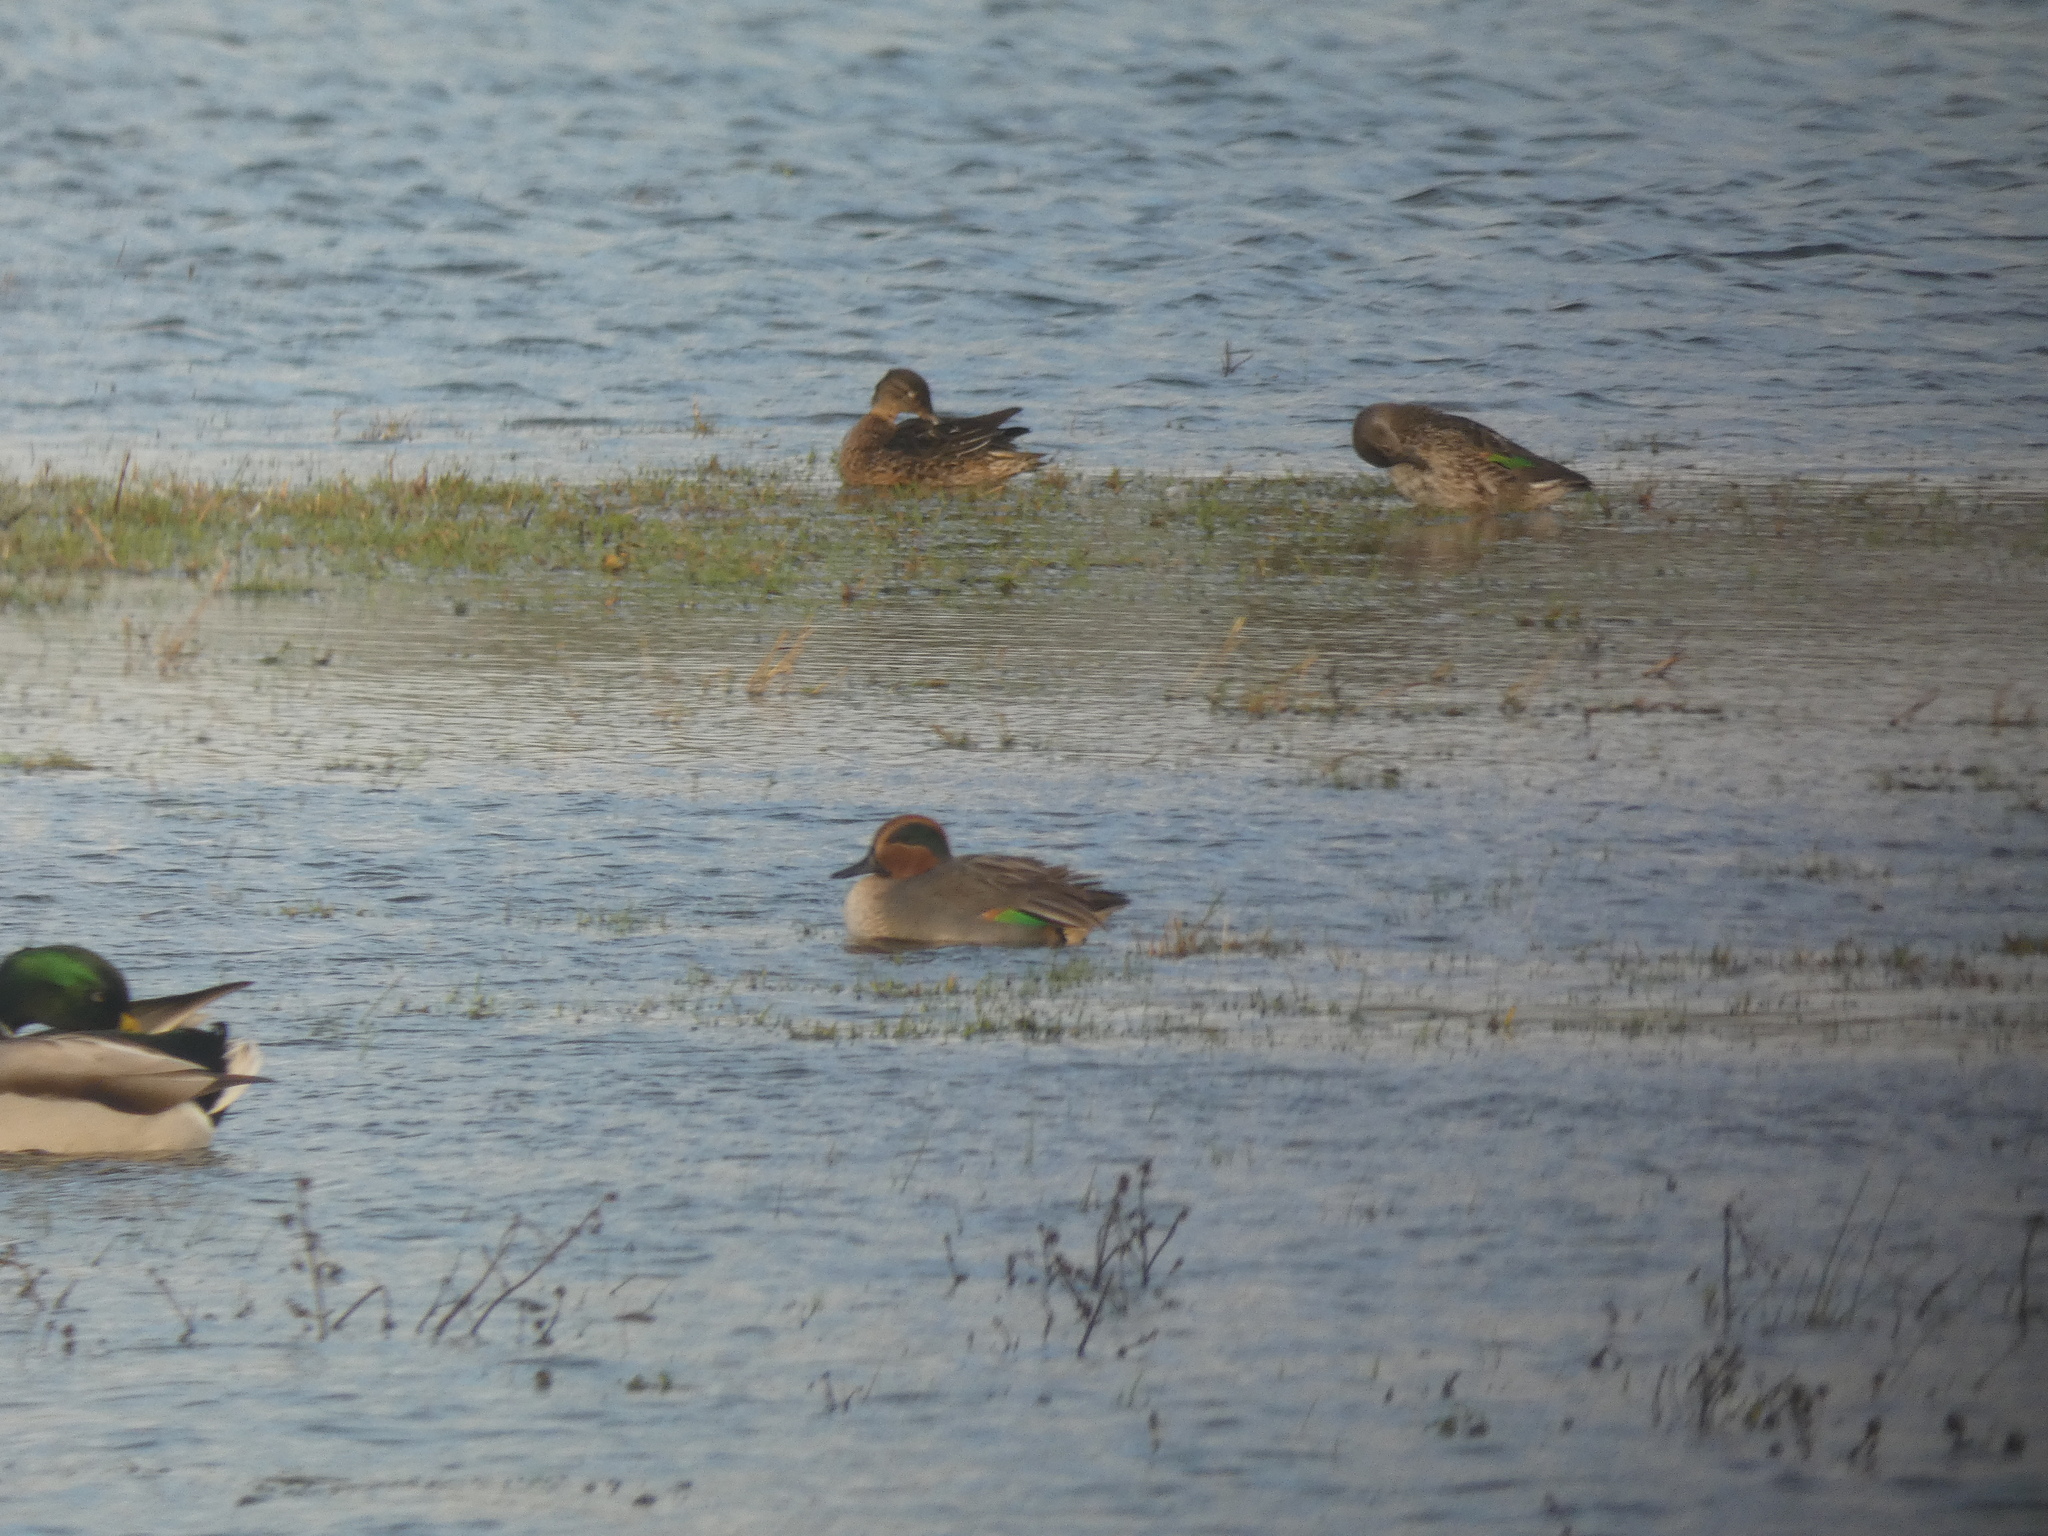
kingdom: Animalia
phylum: Chordata
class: Aves
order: Anseriformes
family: Anatidae
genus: Anas
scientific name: Anas crecca
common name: Eurasian teal
